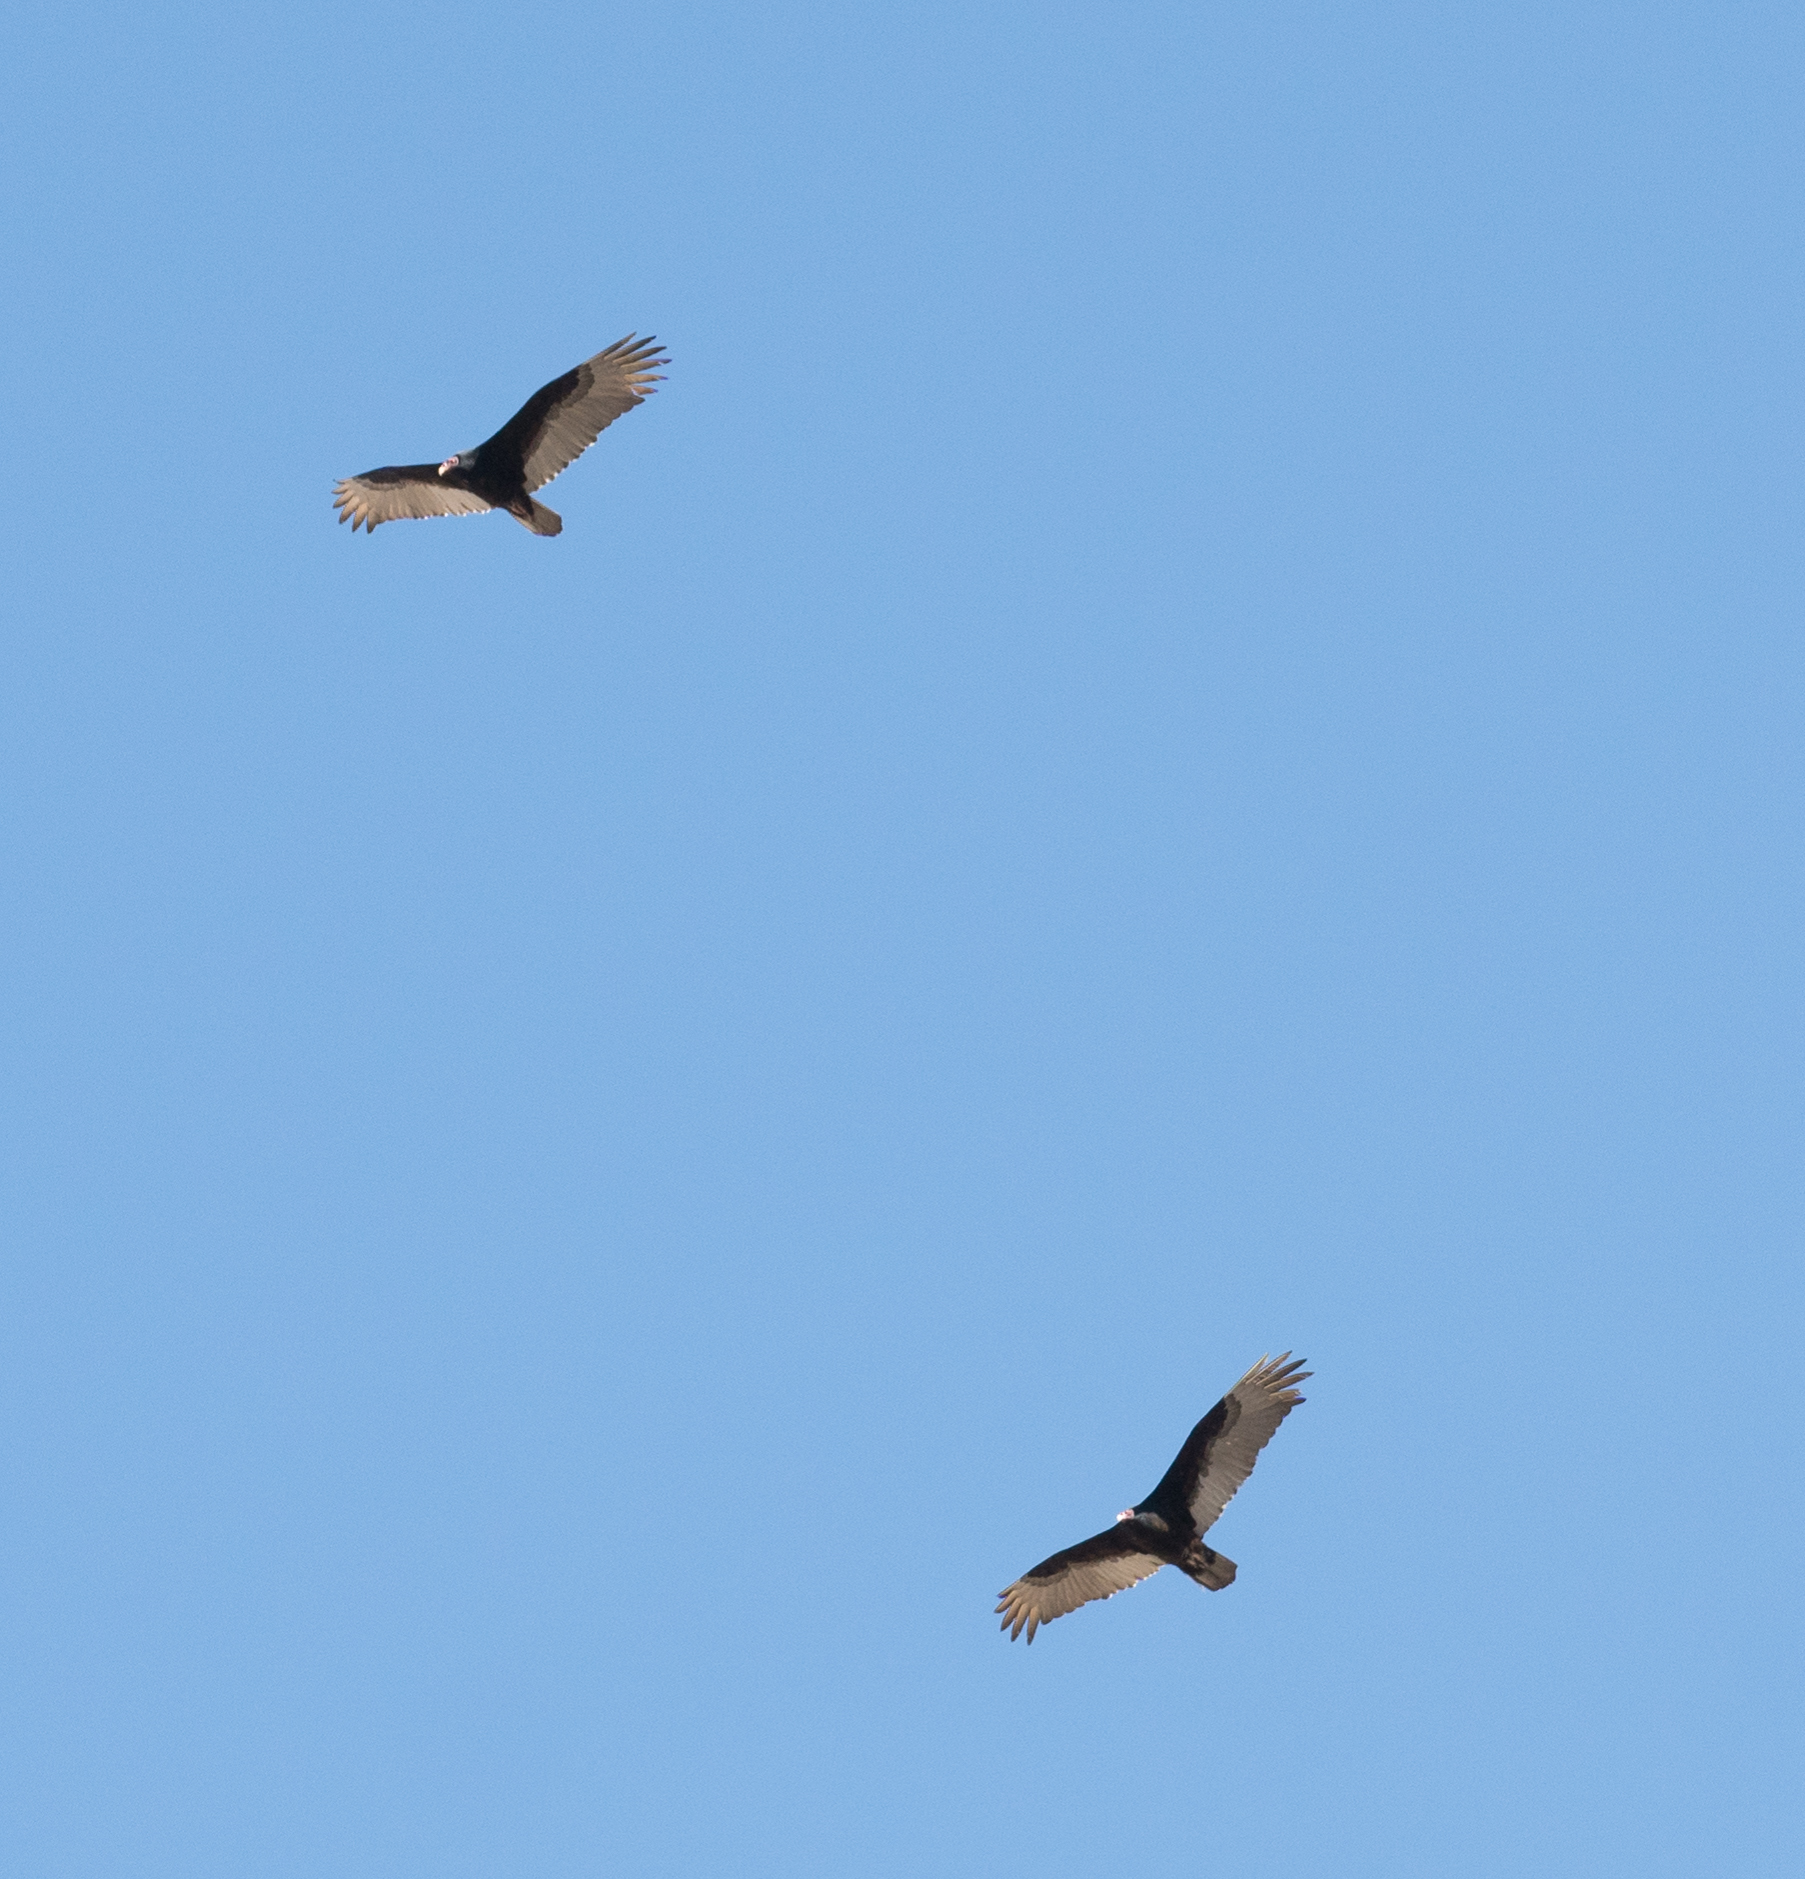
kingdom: Animalia
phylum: Chordata
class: Aves
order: Accipitriformes
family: Cathartidae
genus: Cathartes
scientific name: Cathartes aura
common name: Turkey vulture
